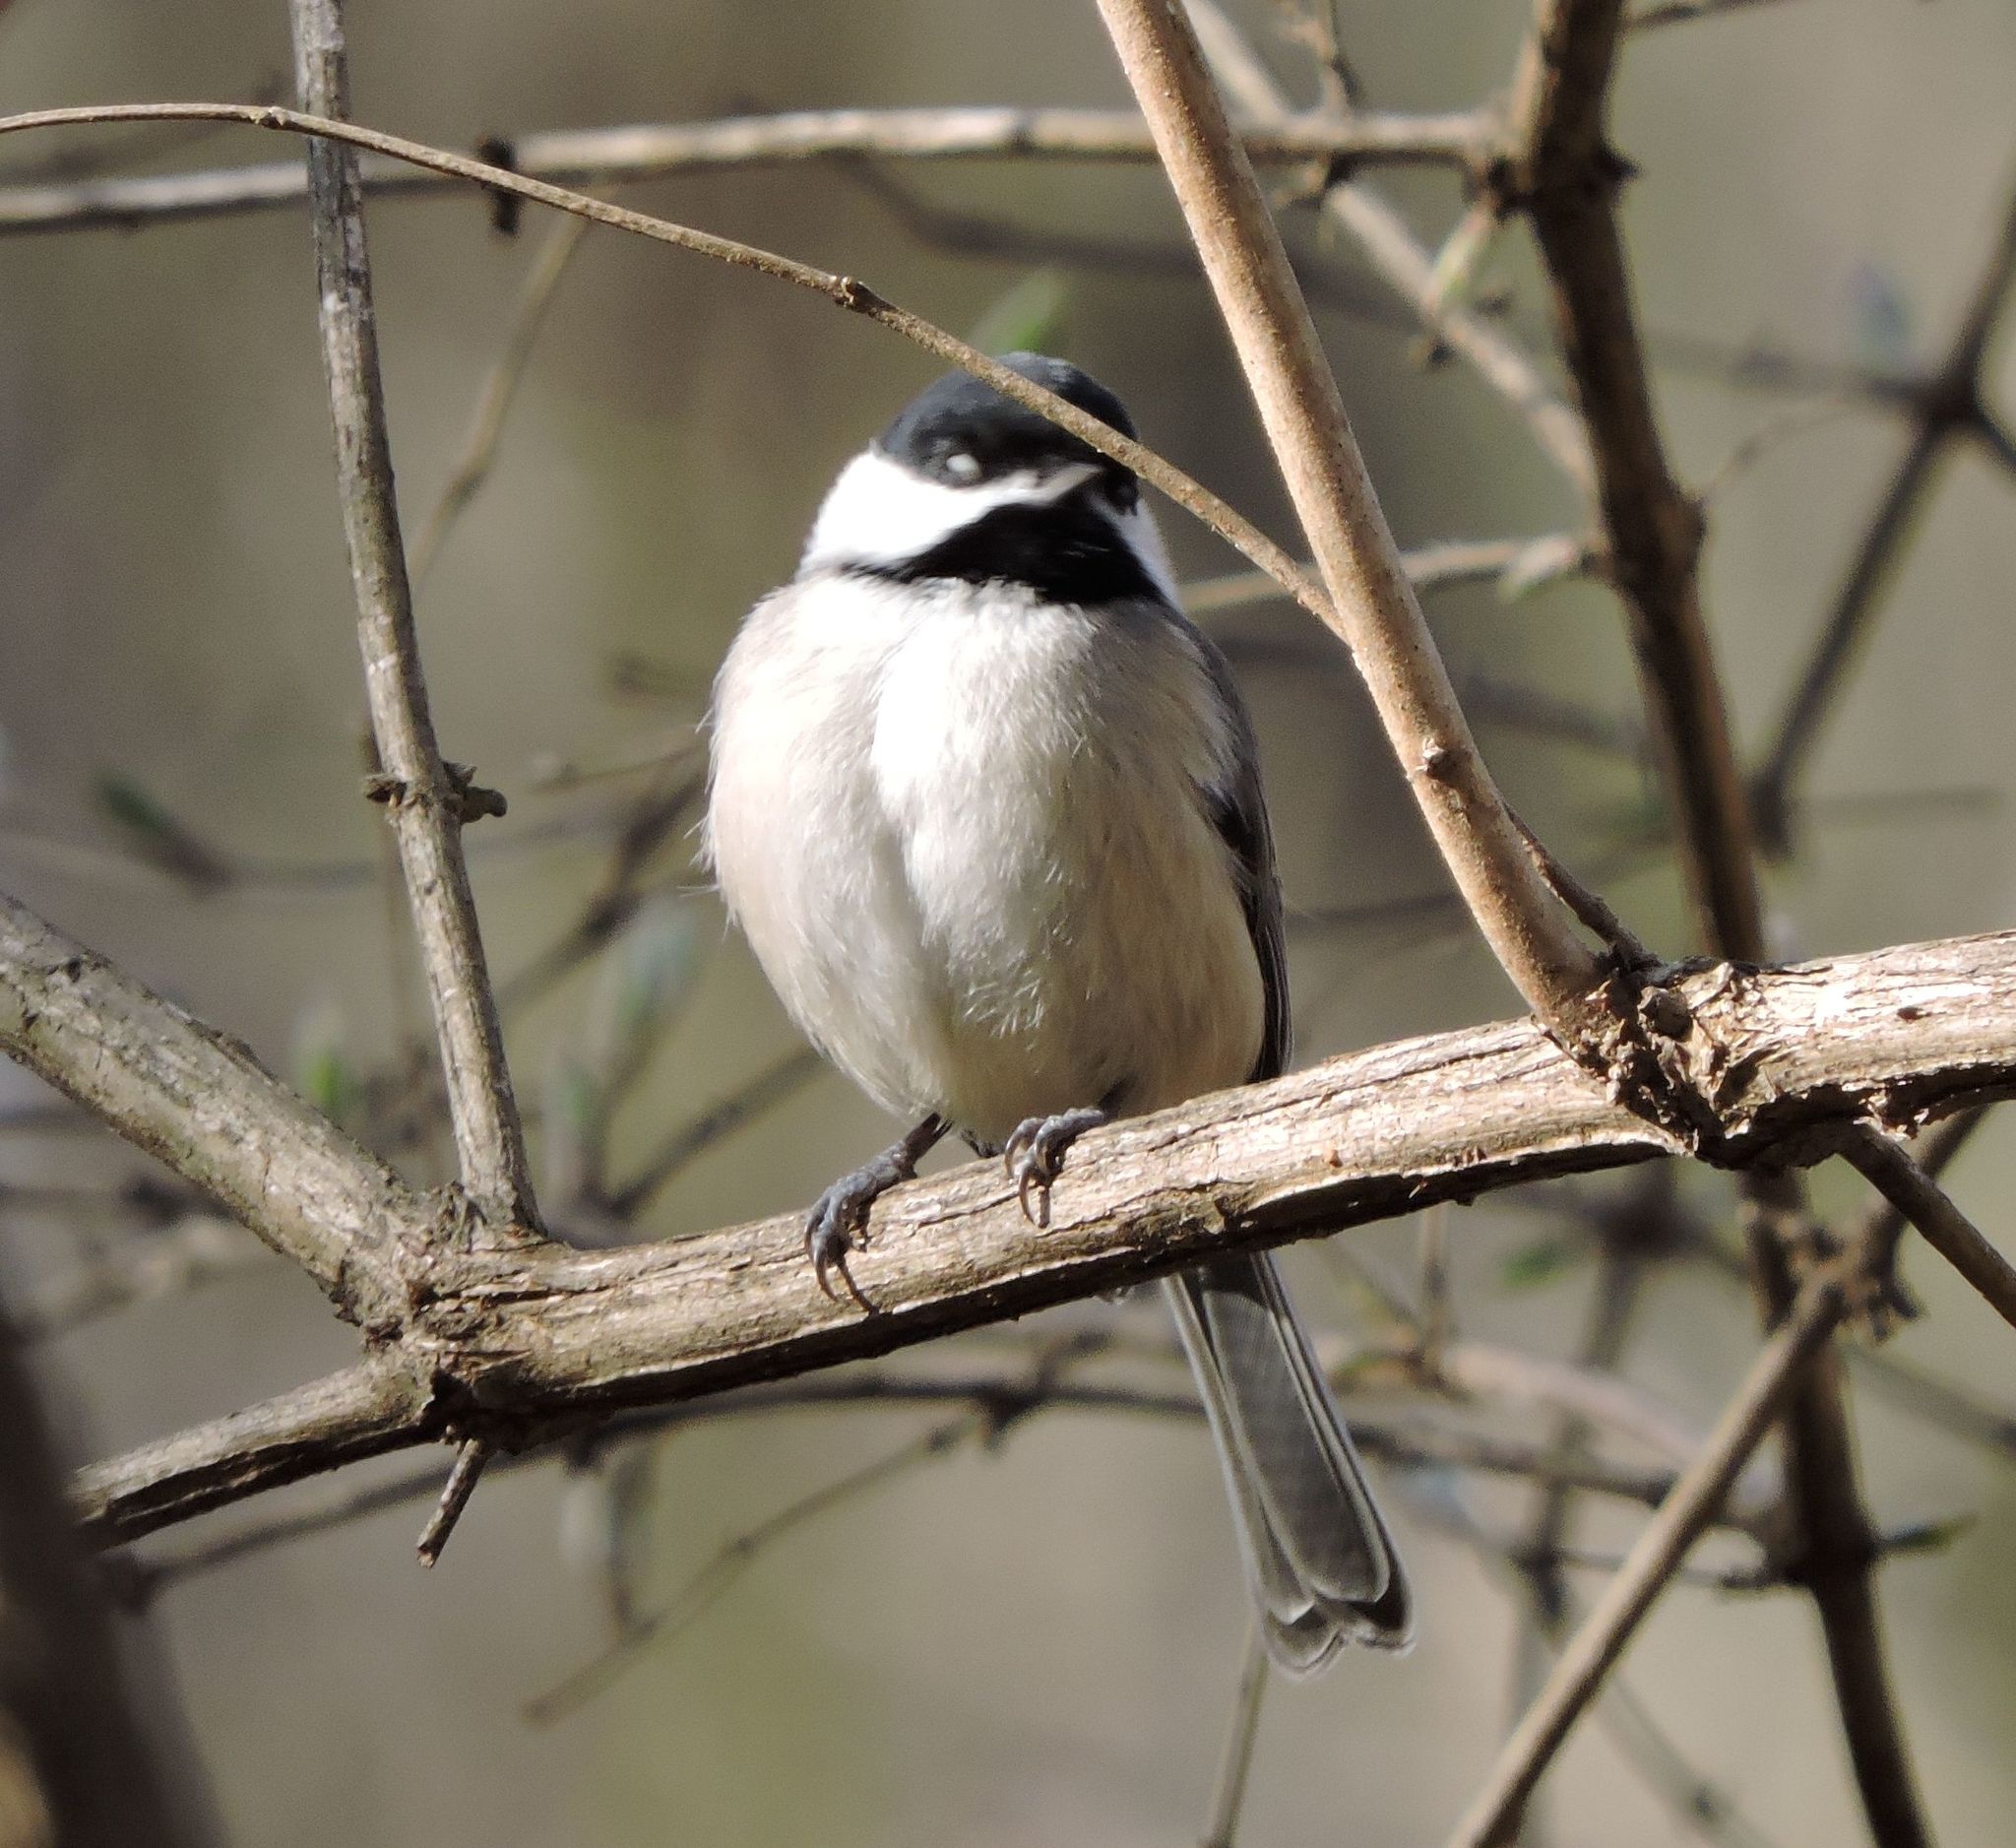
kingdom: Animalia
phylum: Chordata
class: Aves
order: Passeriformes
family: Paridae
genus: Poecile
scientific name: Poecile carolinensis
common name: Carolina chickadee
